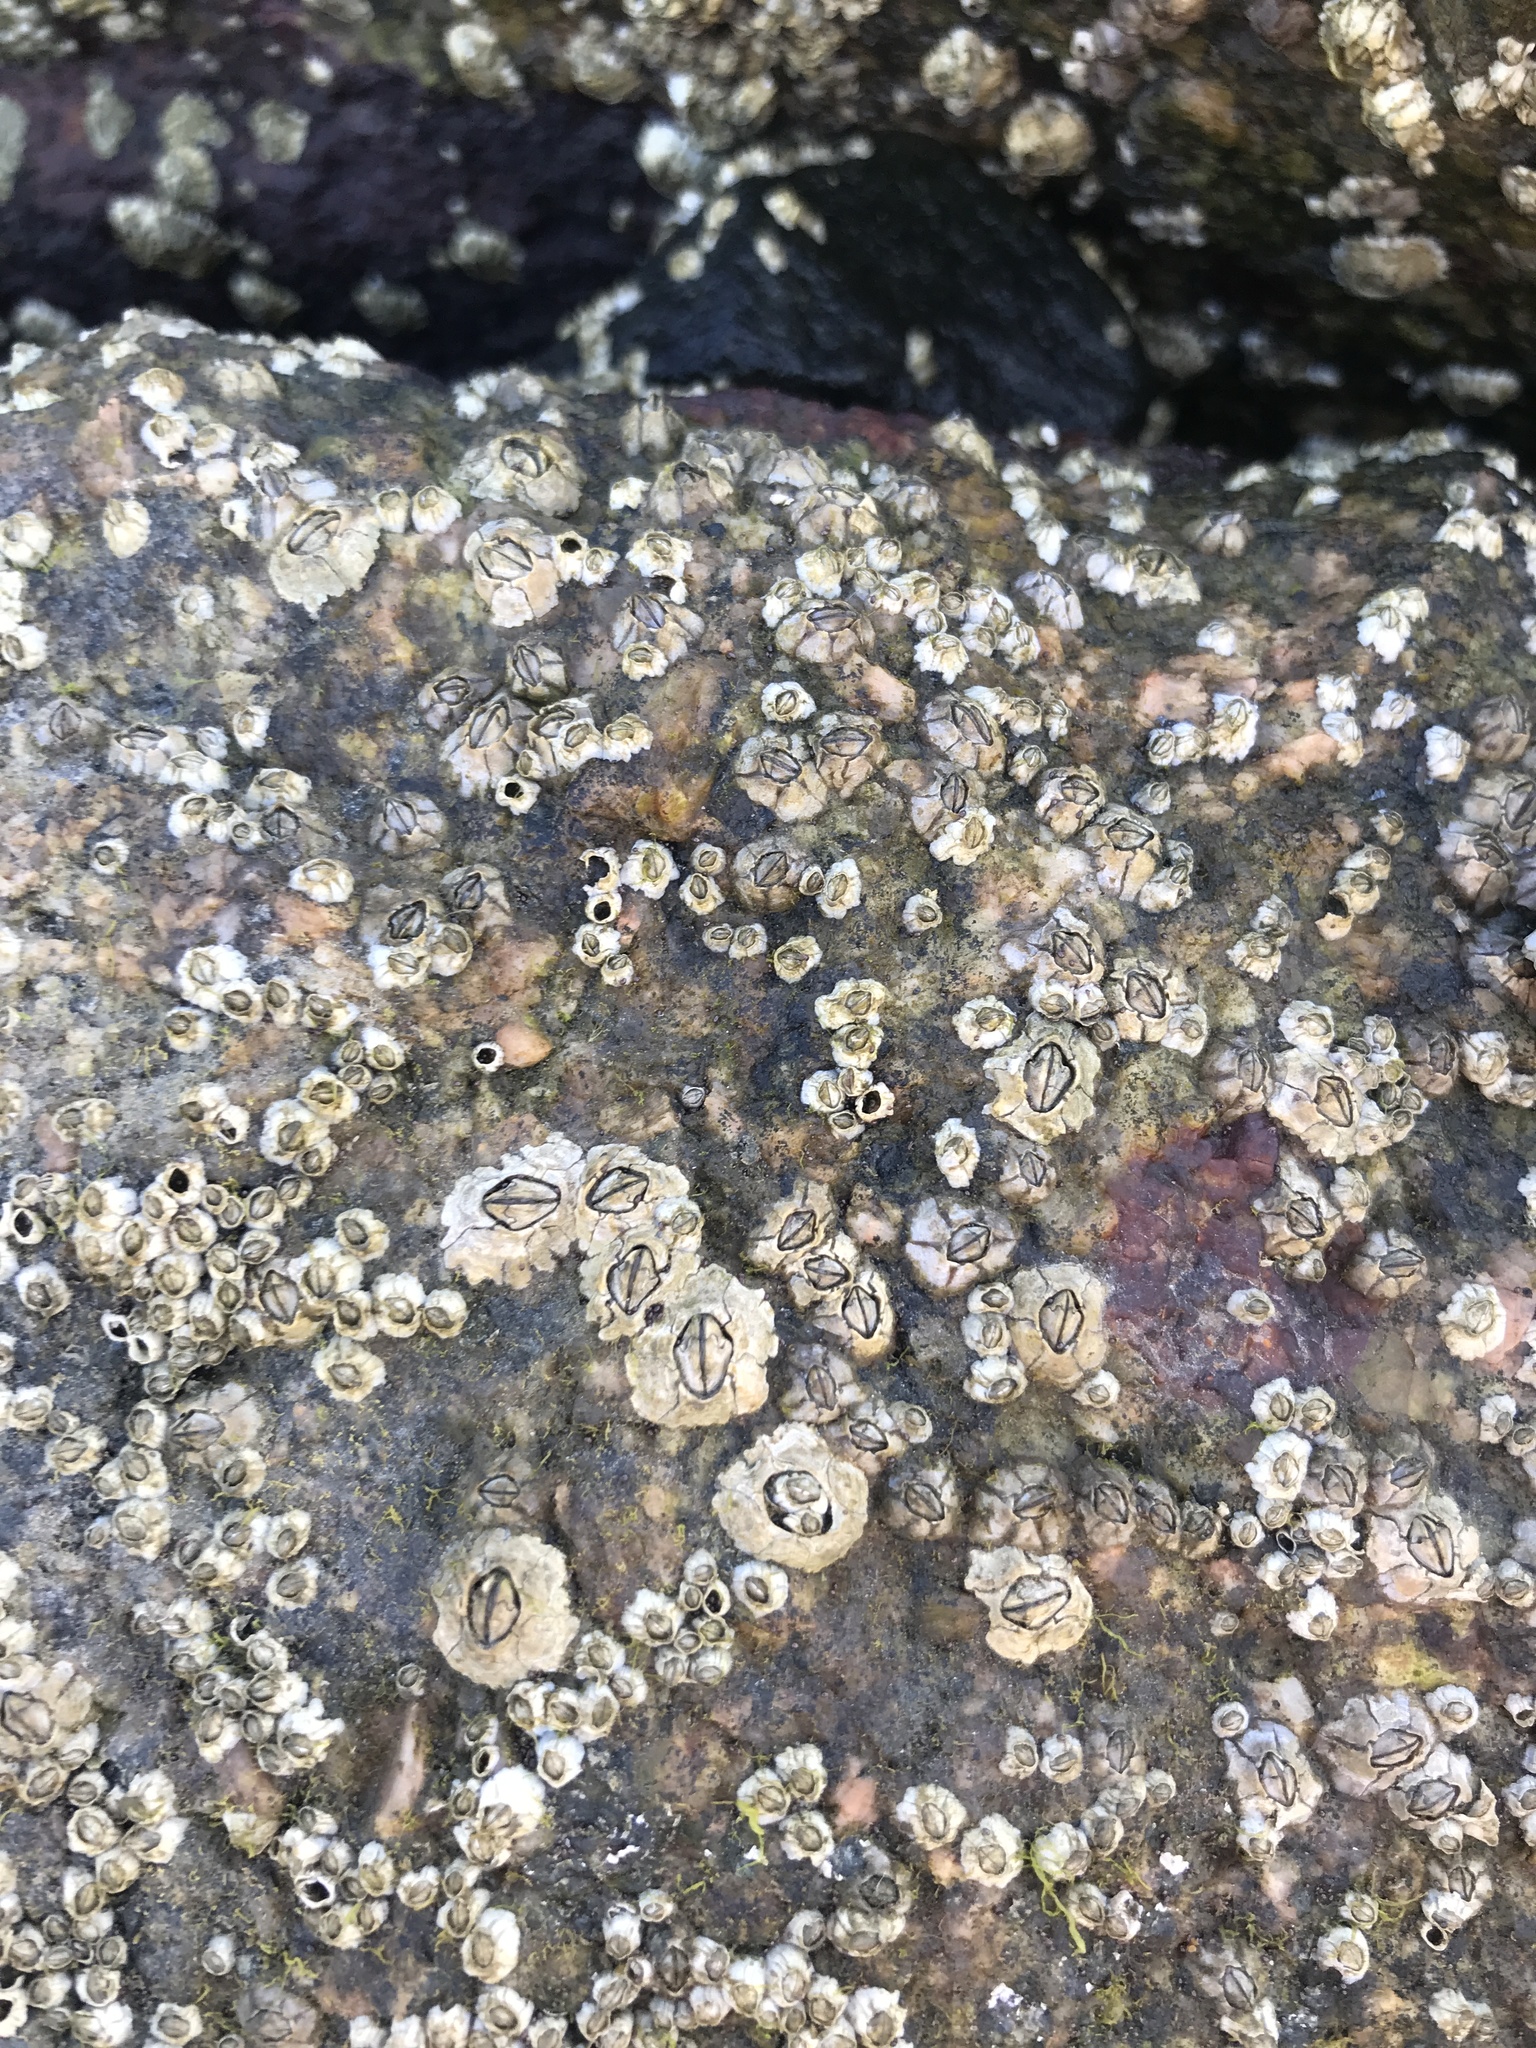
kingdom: Animalia
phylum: Arthropoda
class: Maxillopoda
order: Sessilia
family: Archaeobalanidae
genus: Semibalanus
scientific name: Semibalanus balanoides
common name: Acorn barnacle
